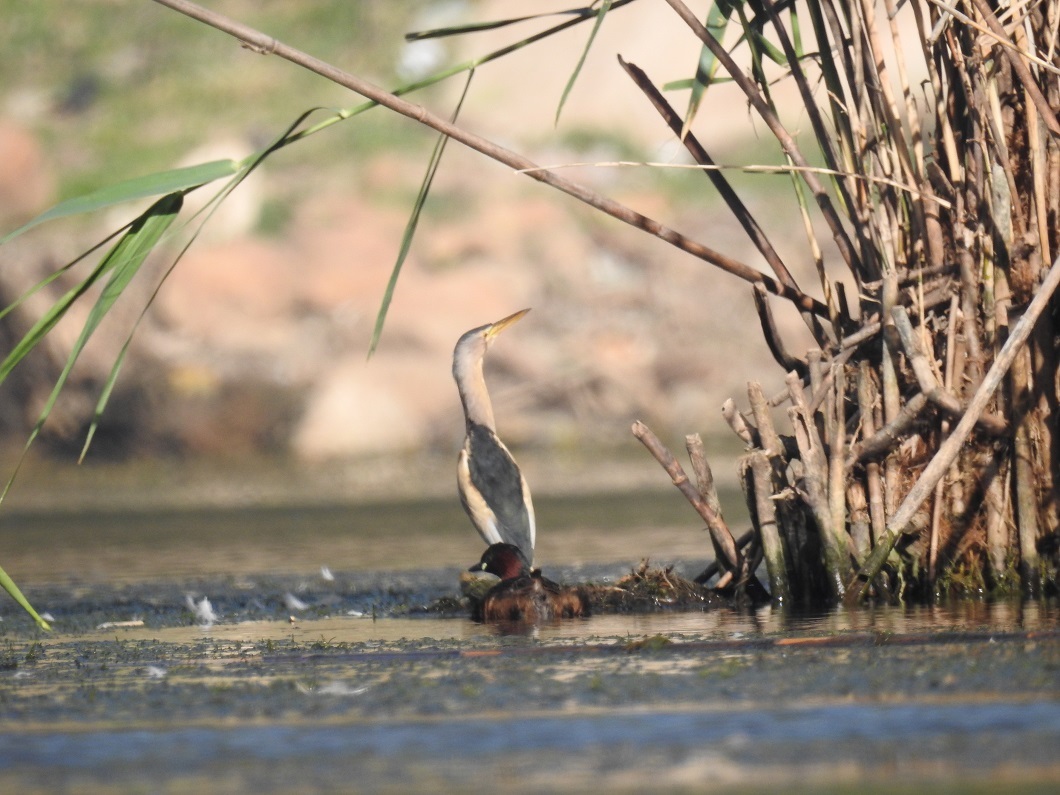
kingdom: Animalia
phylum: Chordata
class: Aves
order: Pelecaniformes
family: Ardeidae
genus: Ixobrychus
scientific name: Ixobrychus minutus
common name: Little bittern
